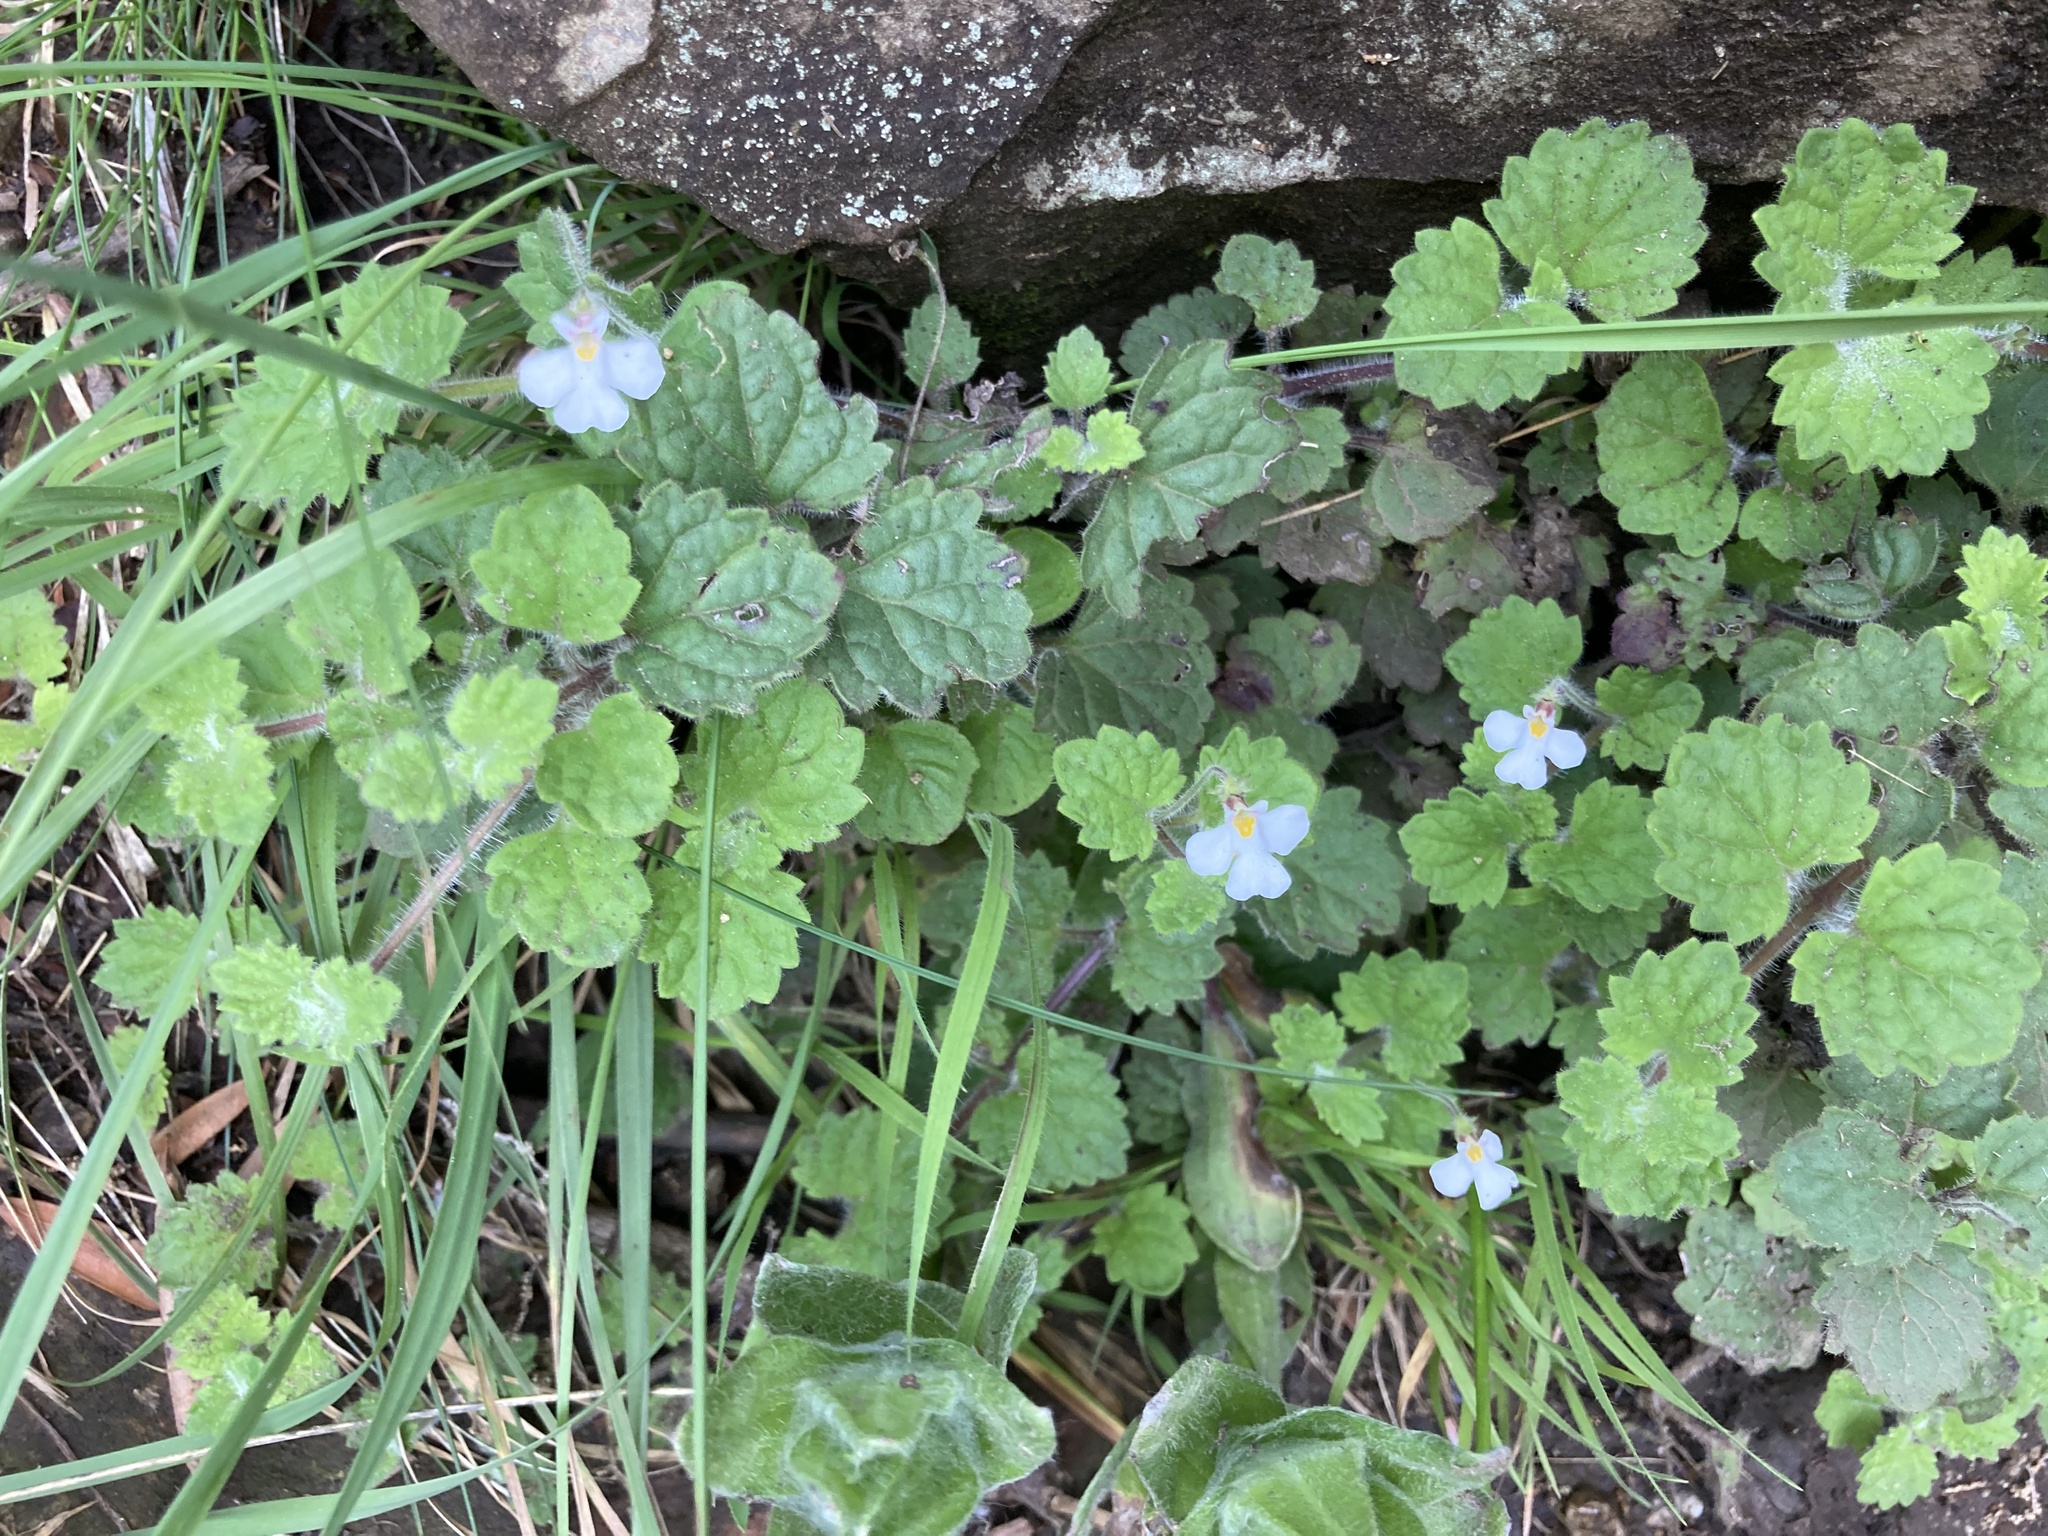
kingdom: Plantae
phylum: Tracheophyta
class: Magnoliopsida
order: Lamiales
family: Scrophulariaceae
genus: Diclis
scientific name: Diclis reptans
